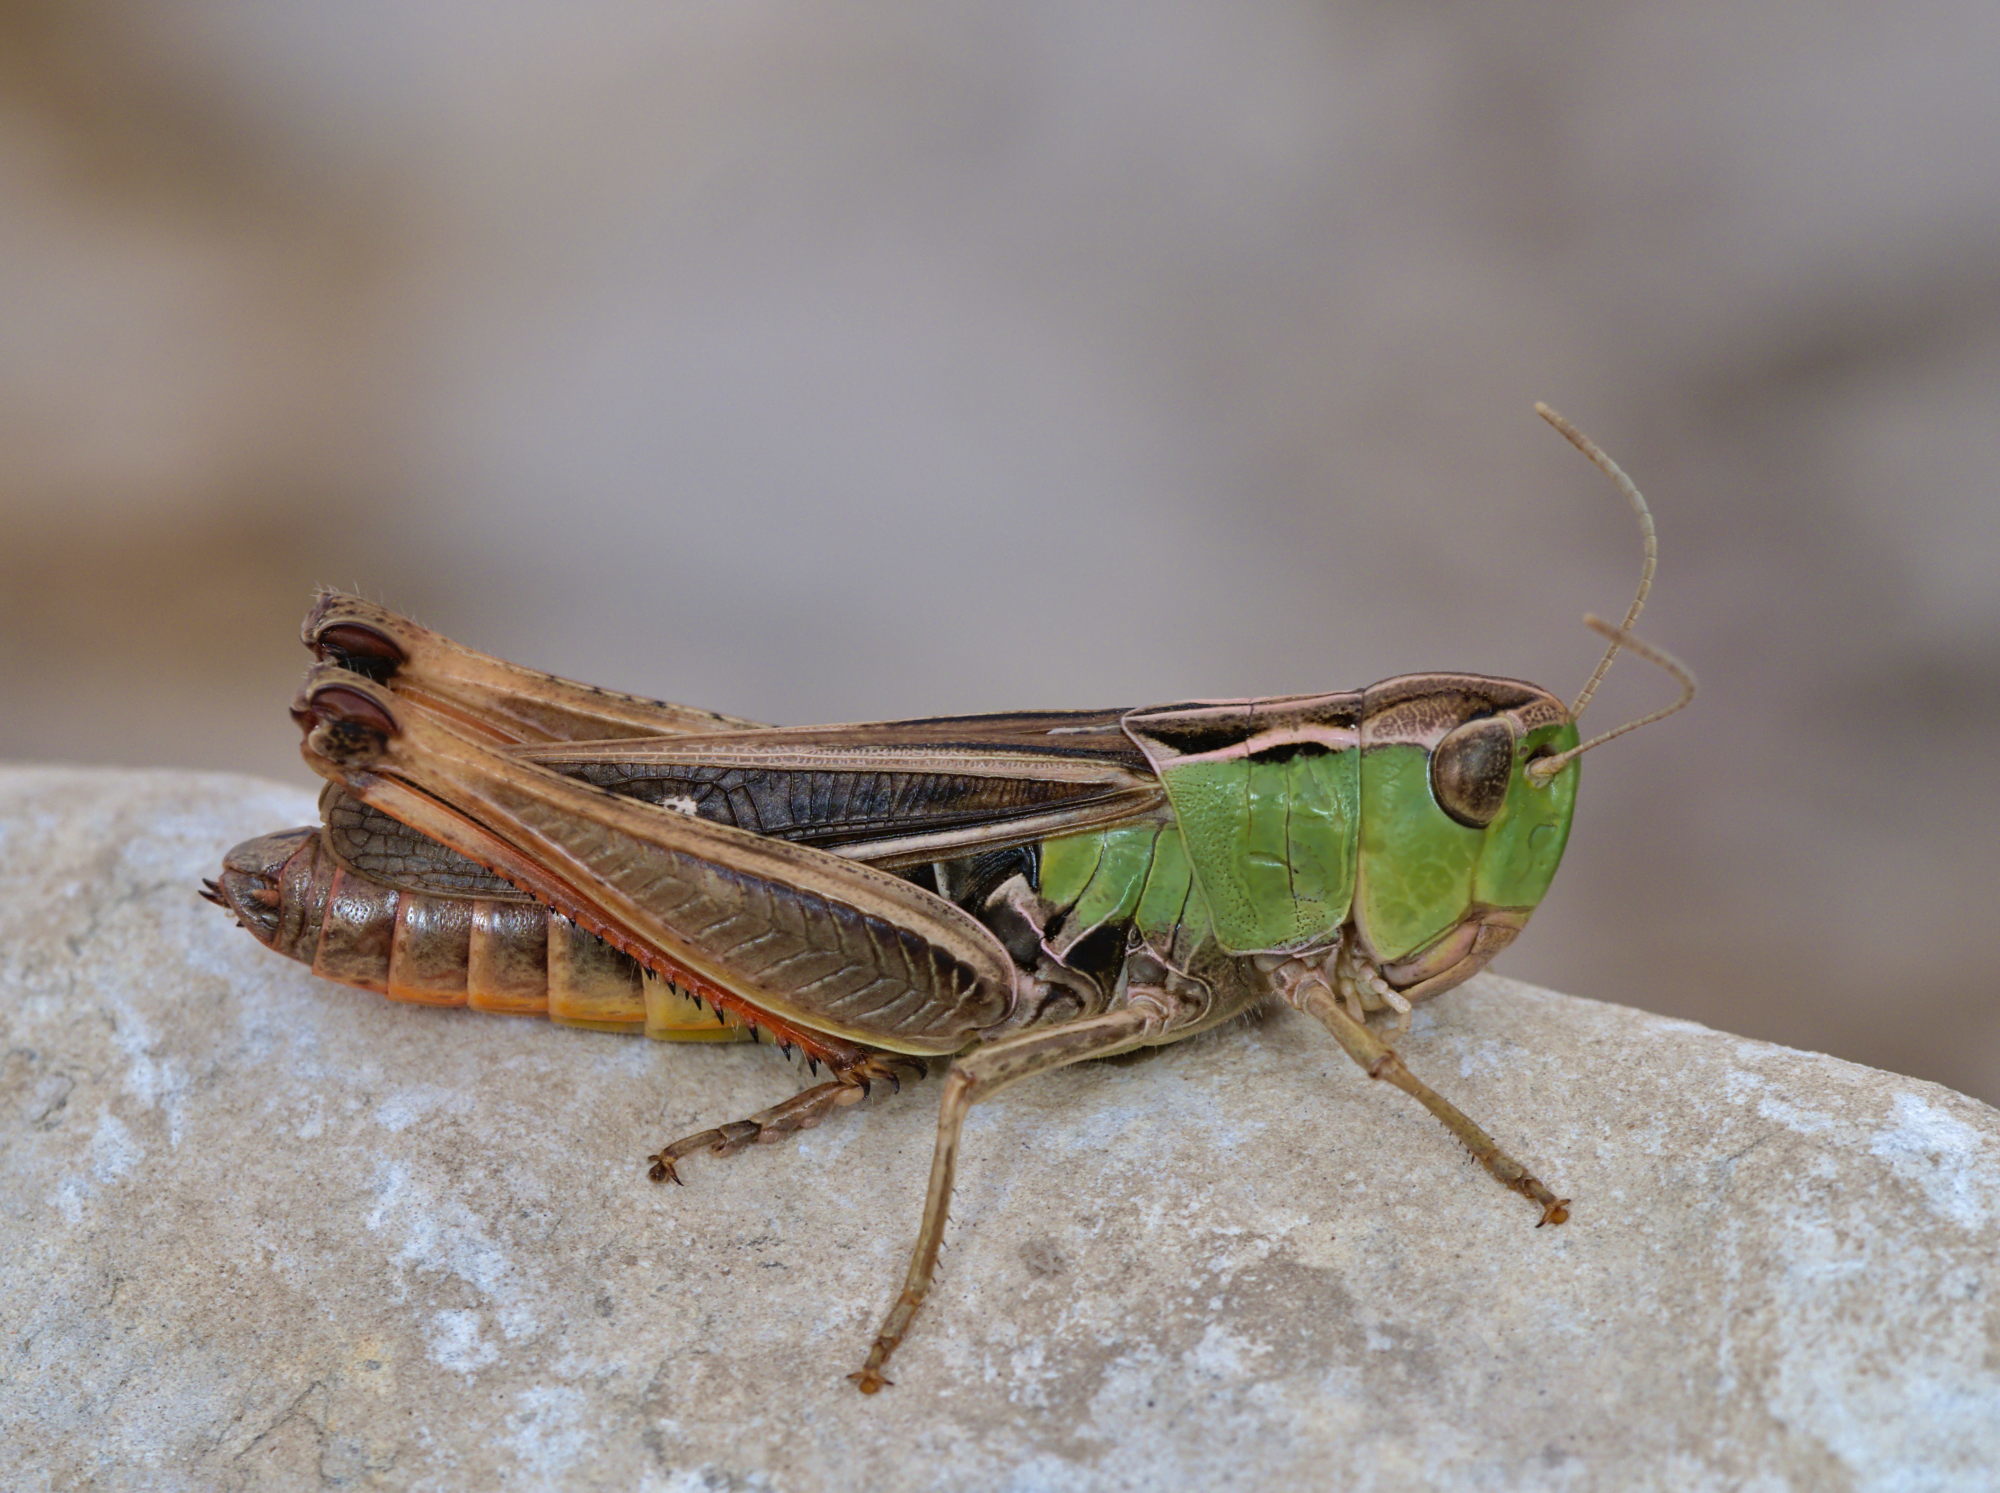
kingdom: Animalia
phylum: Arthropoda
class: Insecta
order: Orthoptera
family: Acrididae
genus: Stenobothrus
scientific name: Stenobothrus lineatus
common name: Stripe-winged grasshopper
